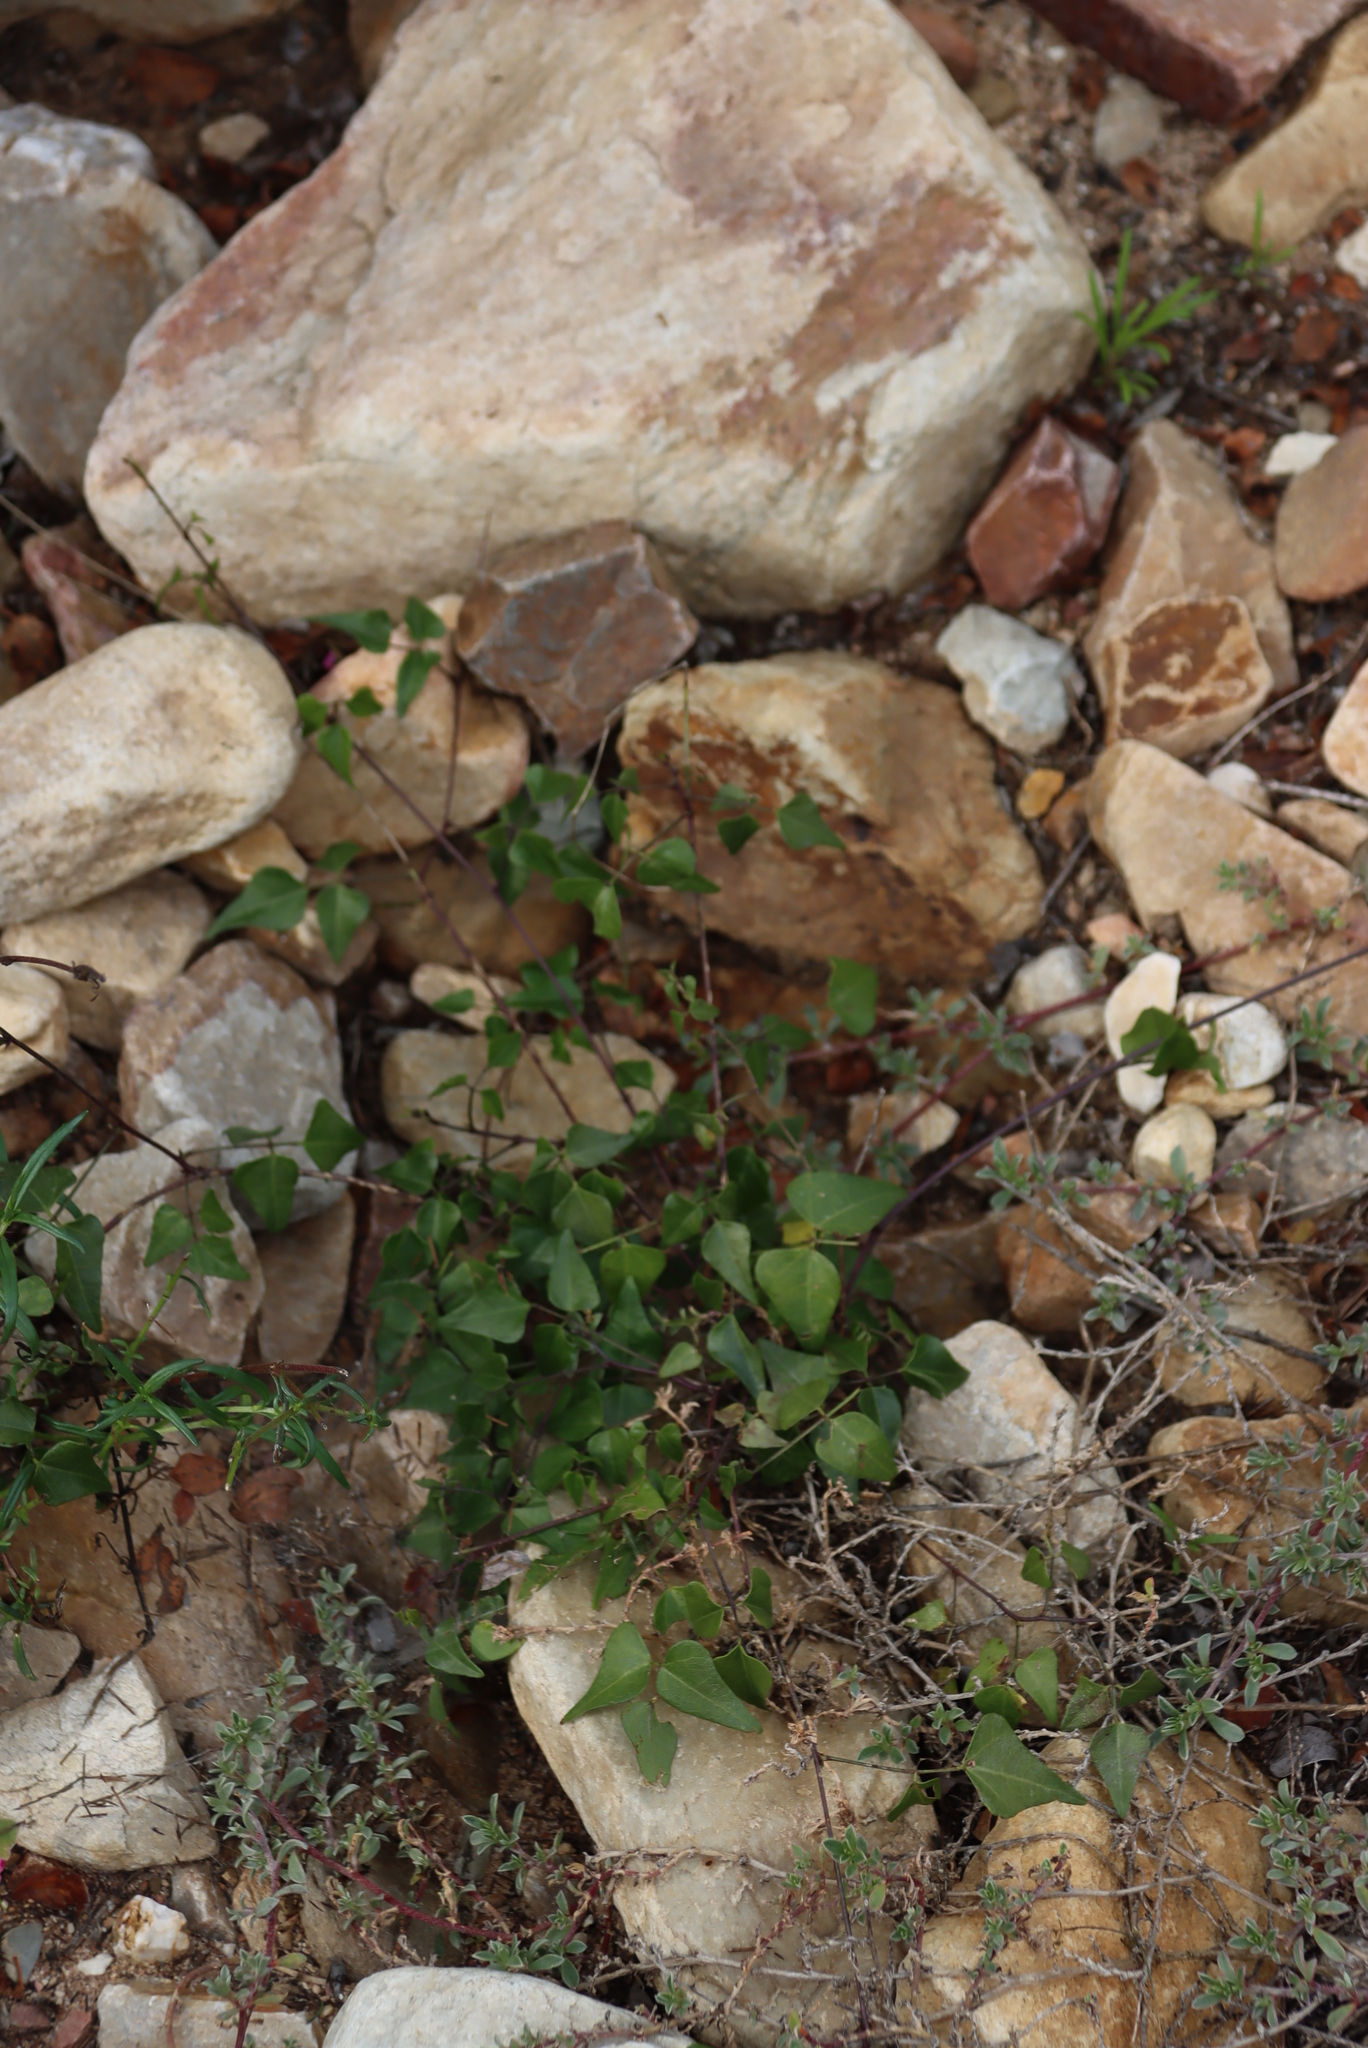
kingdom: Plantae
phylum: Tracheophyta
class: Magnoliopsida
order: Fabales
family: Fabaceae
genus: Dipogon
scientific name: Dipogon lignosus
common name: Okie bean
